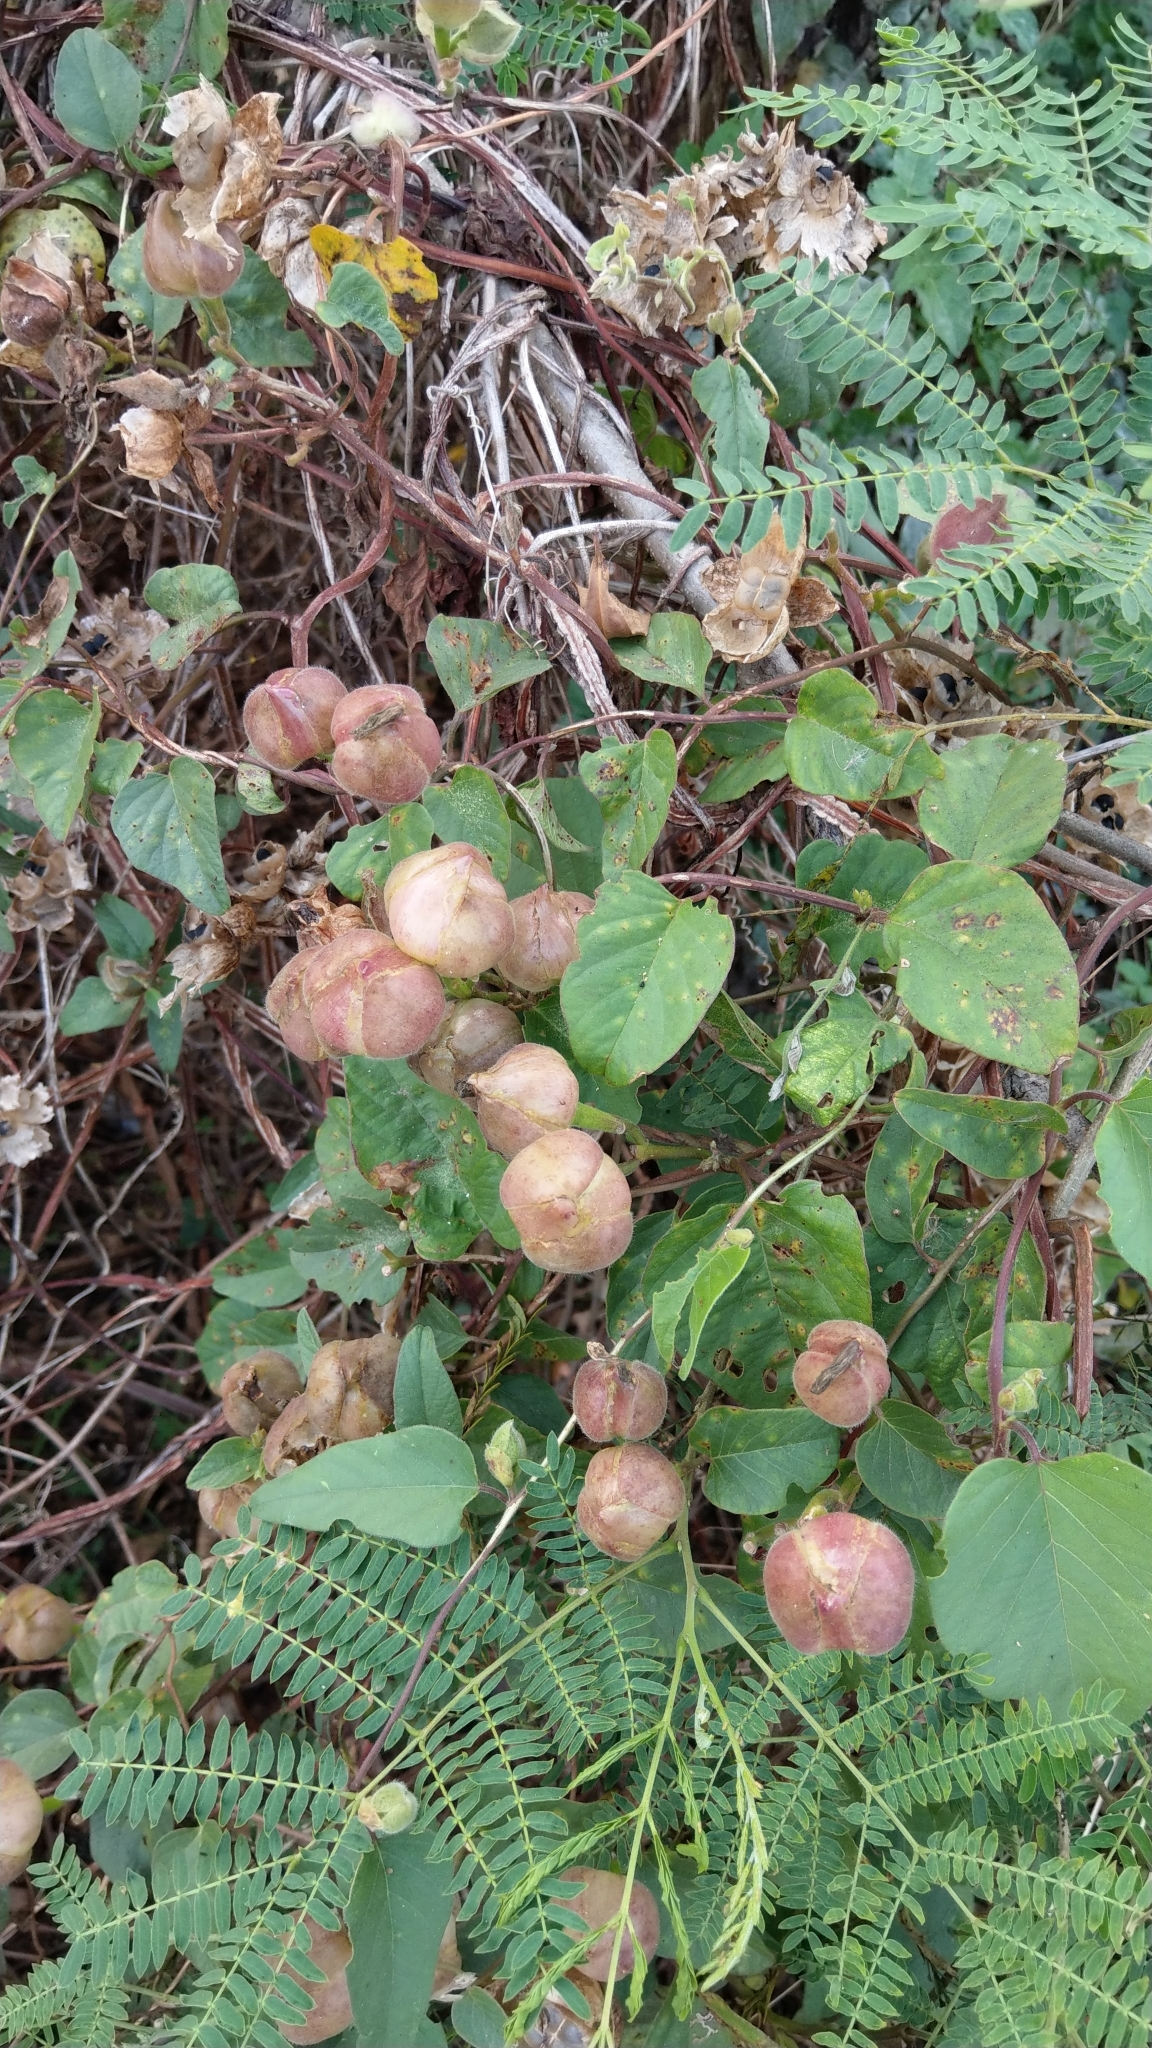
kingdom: Plantae
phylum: Tracheophyta
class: Magnoliopsida
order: Solanales
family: Convolvulaceae
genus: Operculina
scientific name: Operculina turpethum
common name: Transparent wood-rose
